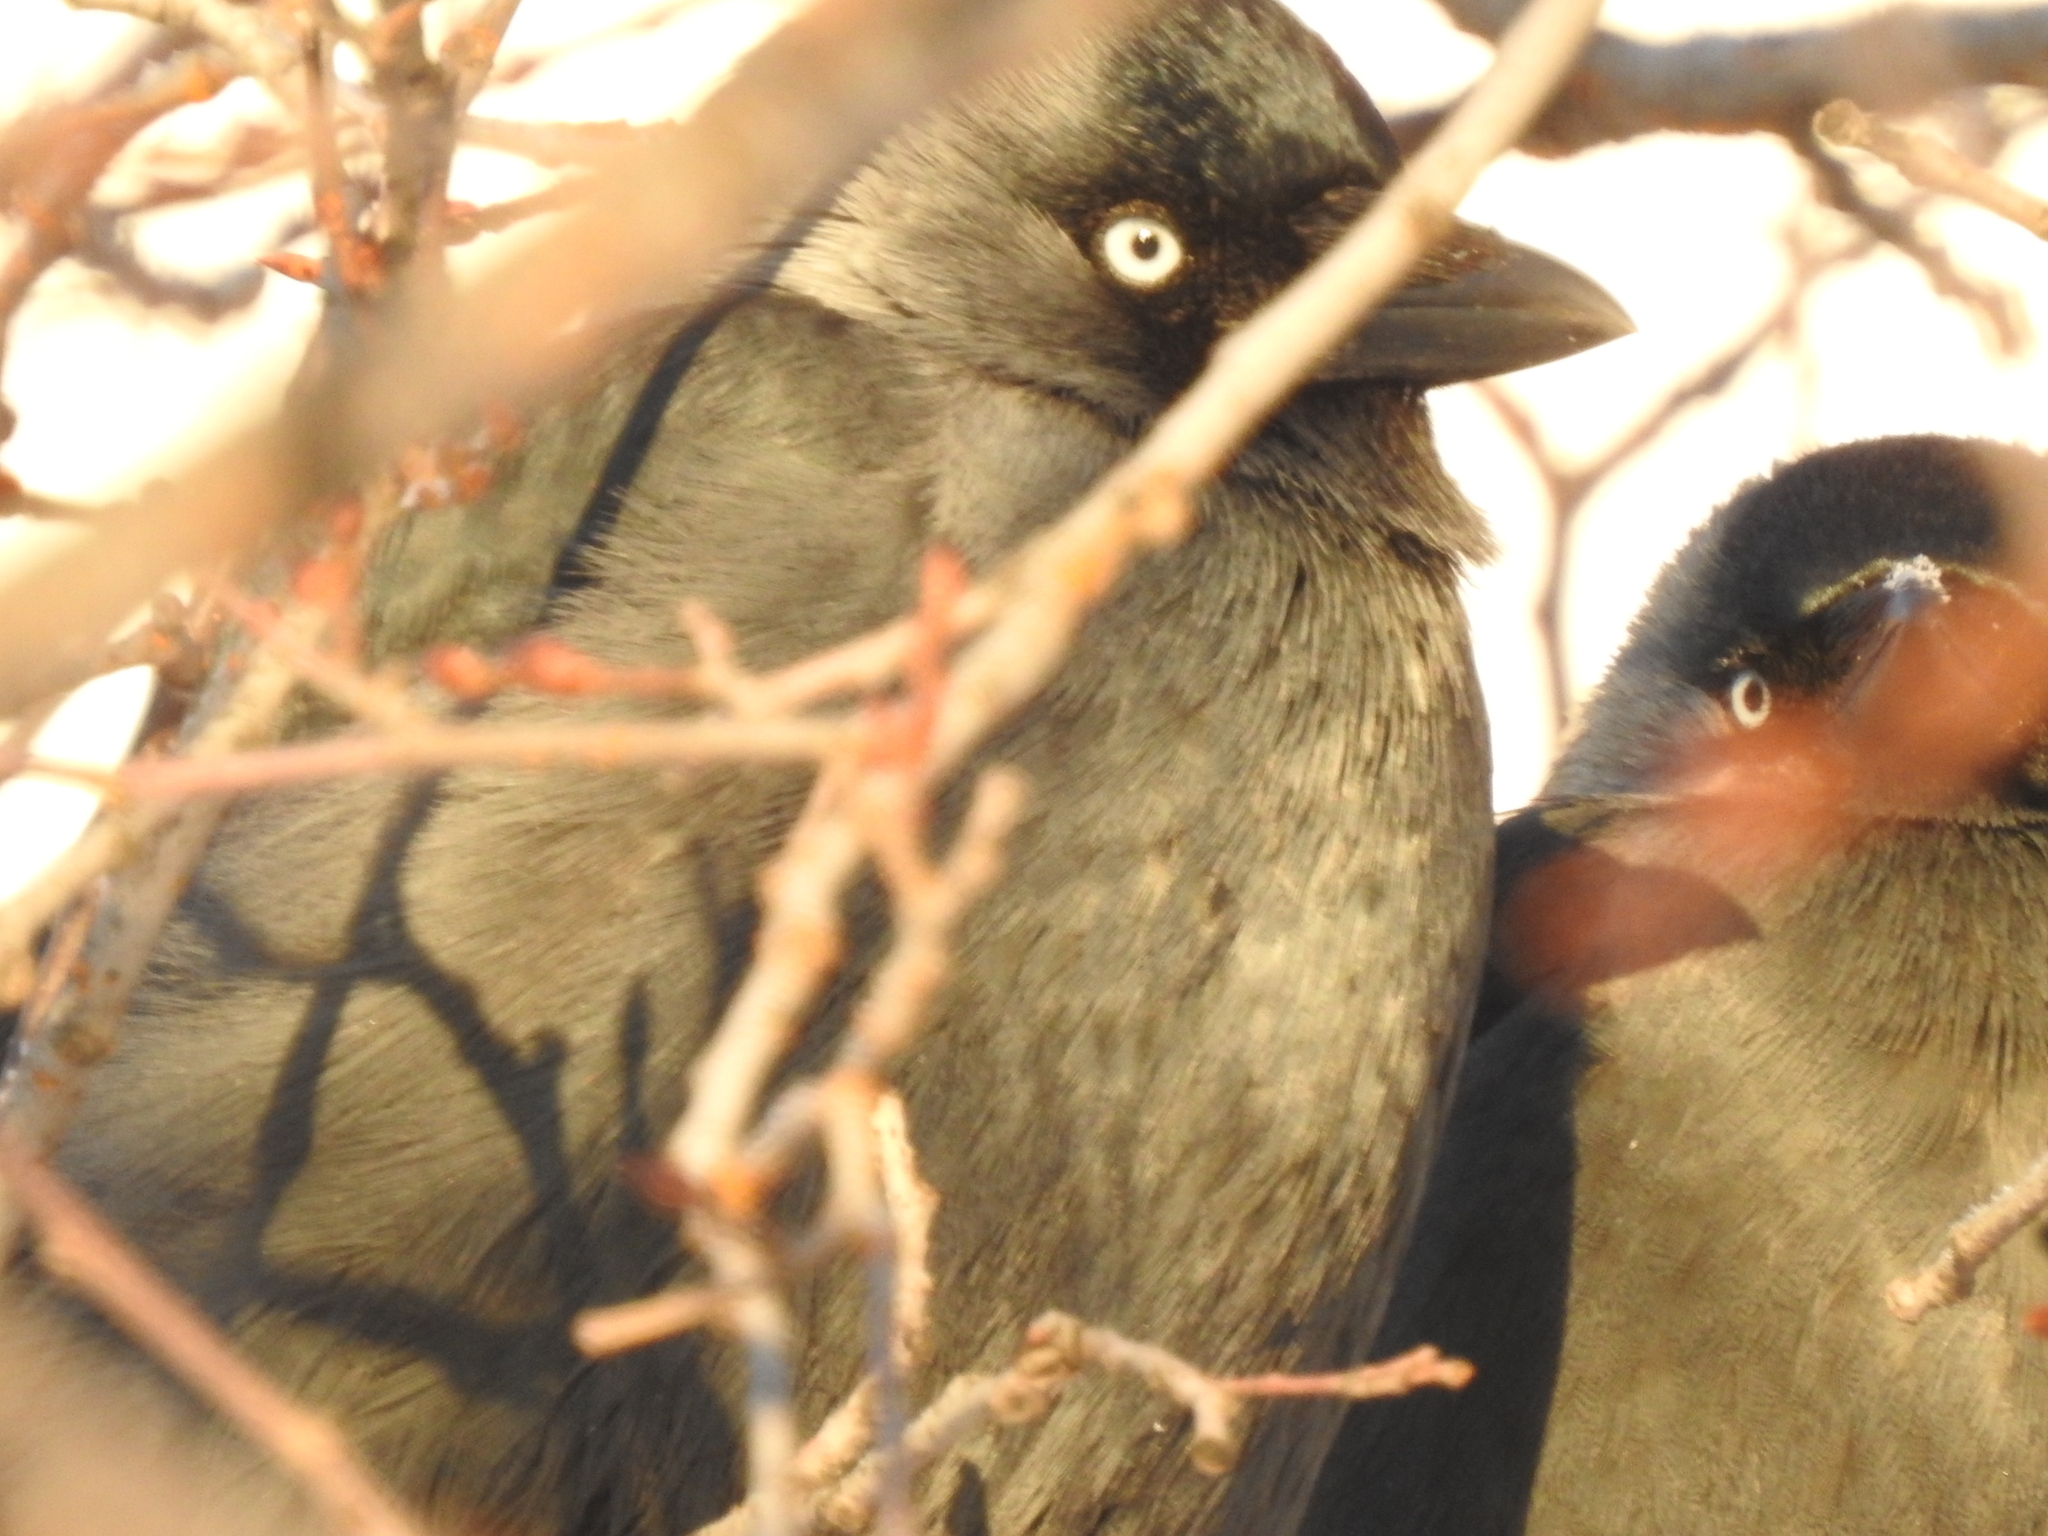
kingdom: Animalia
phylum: Chordata
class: Aves
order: Passeriformes
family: Corvidae
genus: Coloeus
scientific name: Coloeus monedula
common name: Western jackdaw
